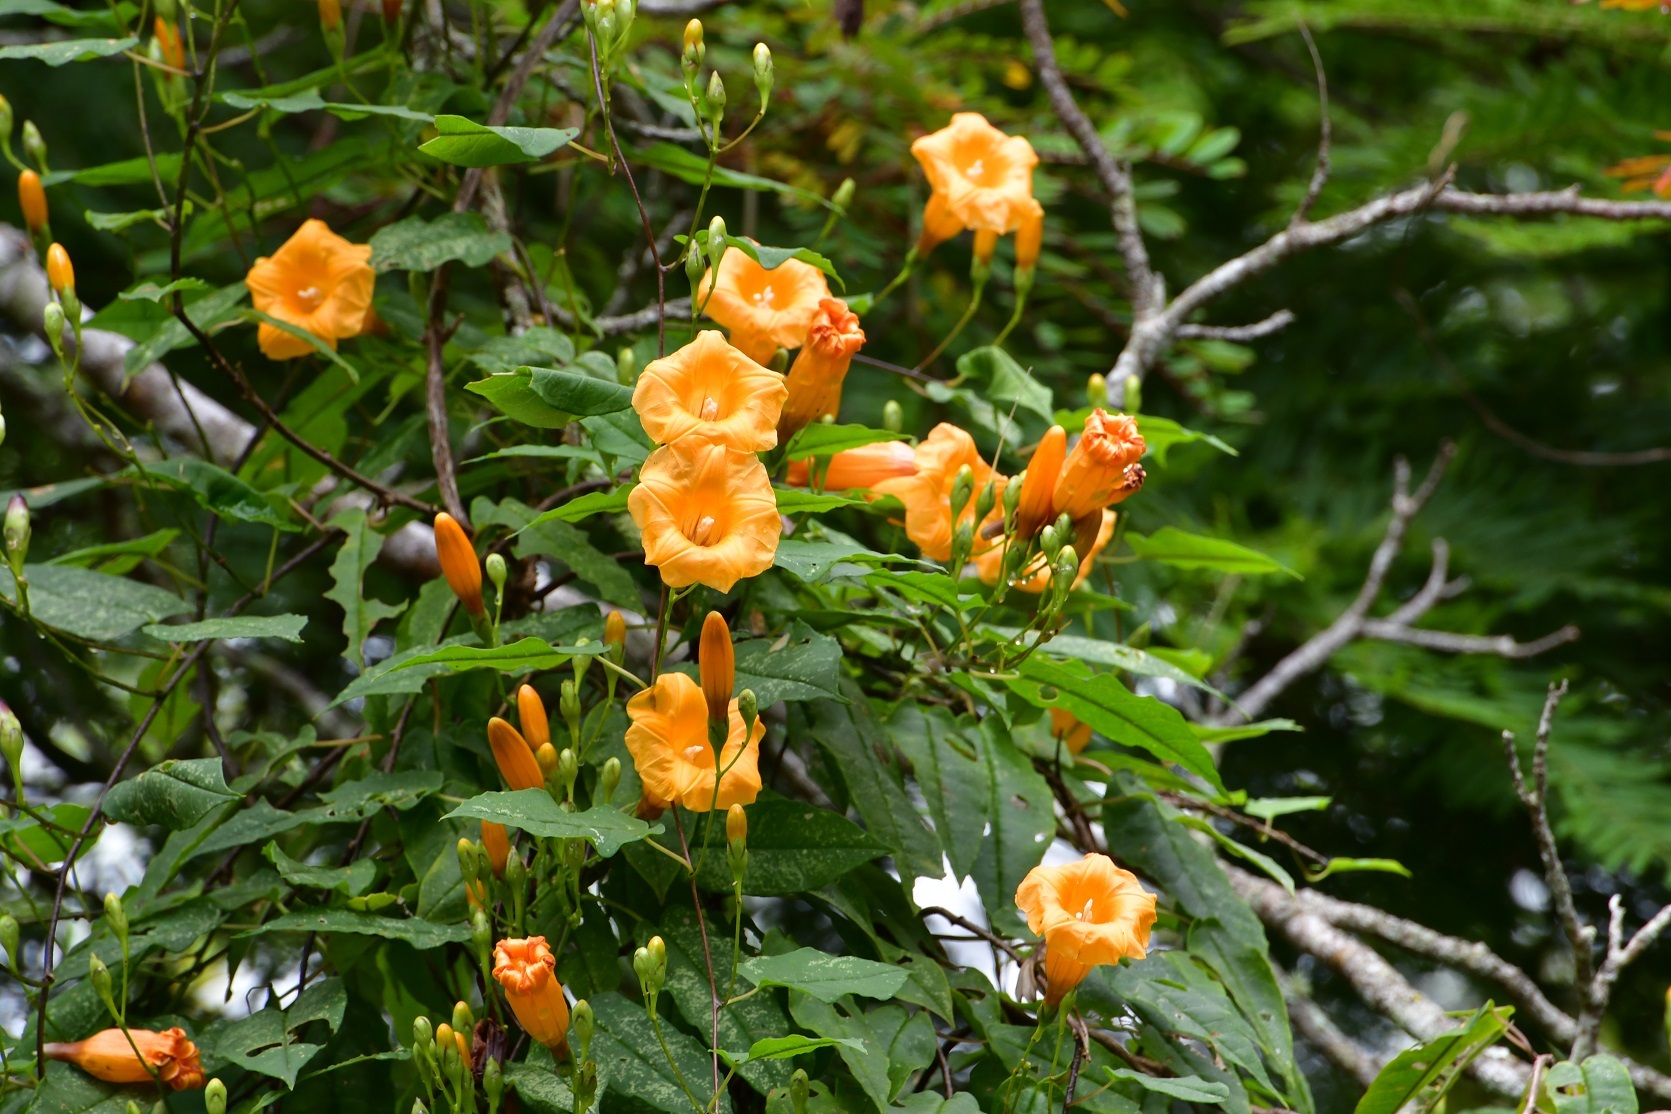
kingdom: Plantae
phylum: Tracheophyta
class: Magnoliopsida
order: Solanales
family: Convolvulaceae
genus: Ipomoea
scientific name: Ipomoea aurantiaca
